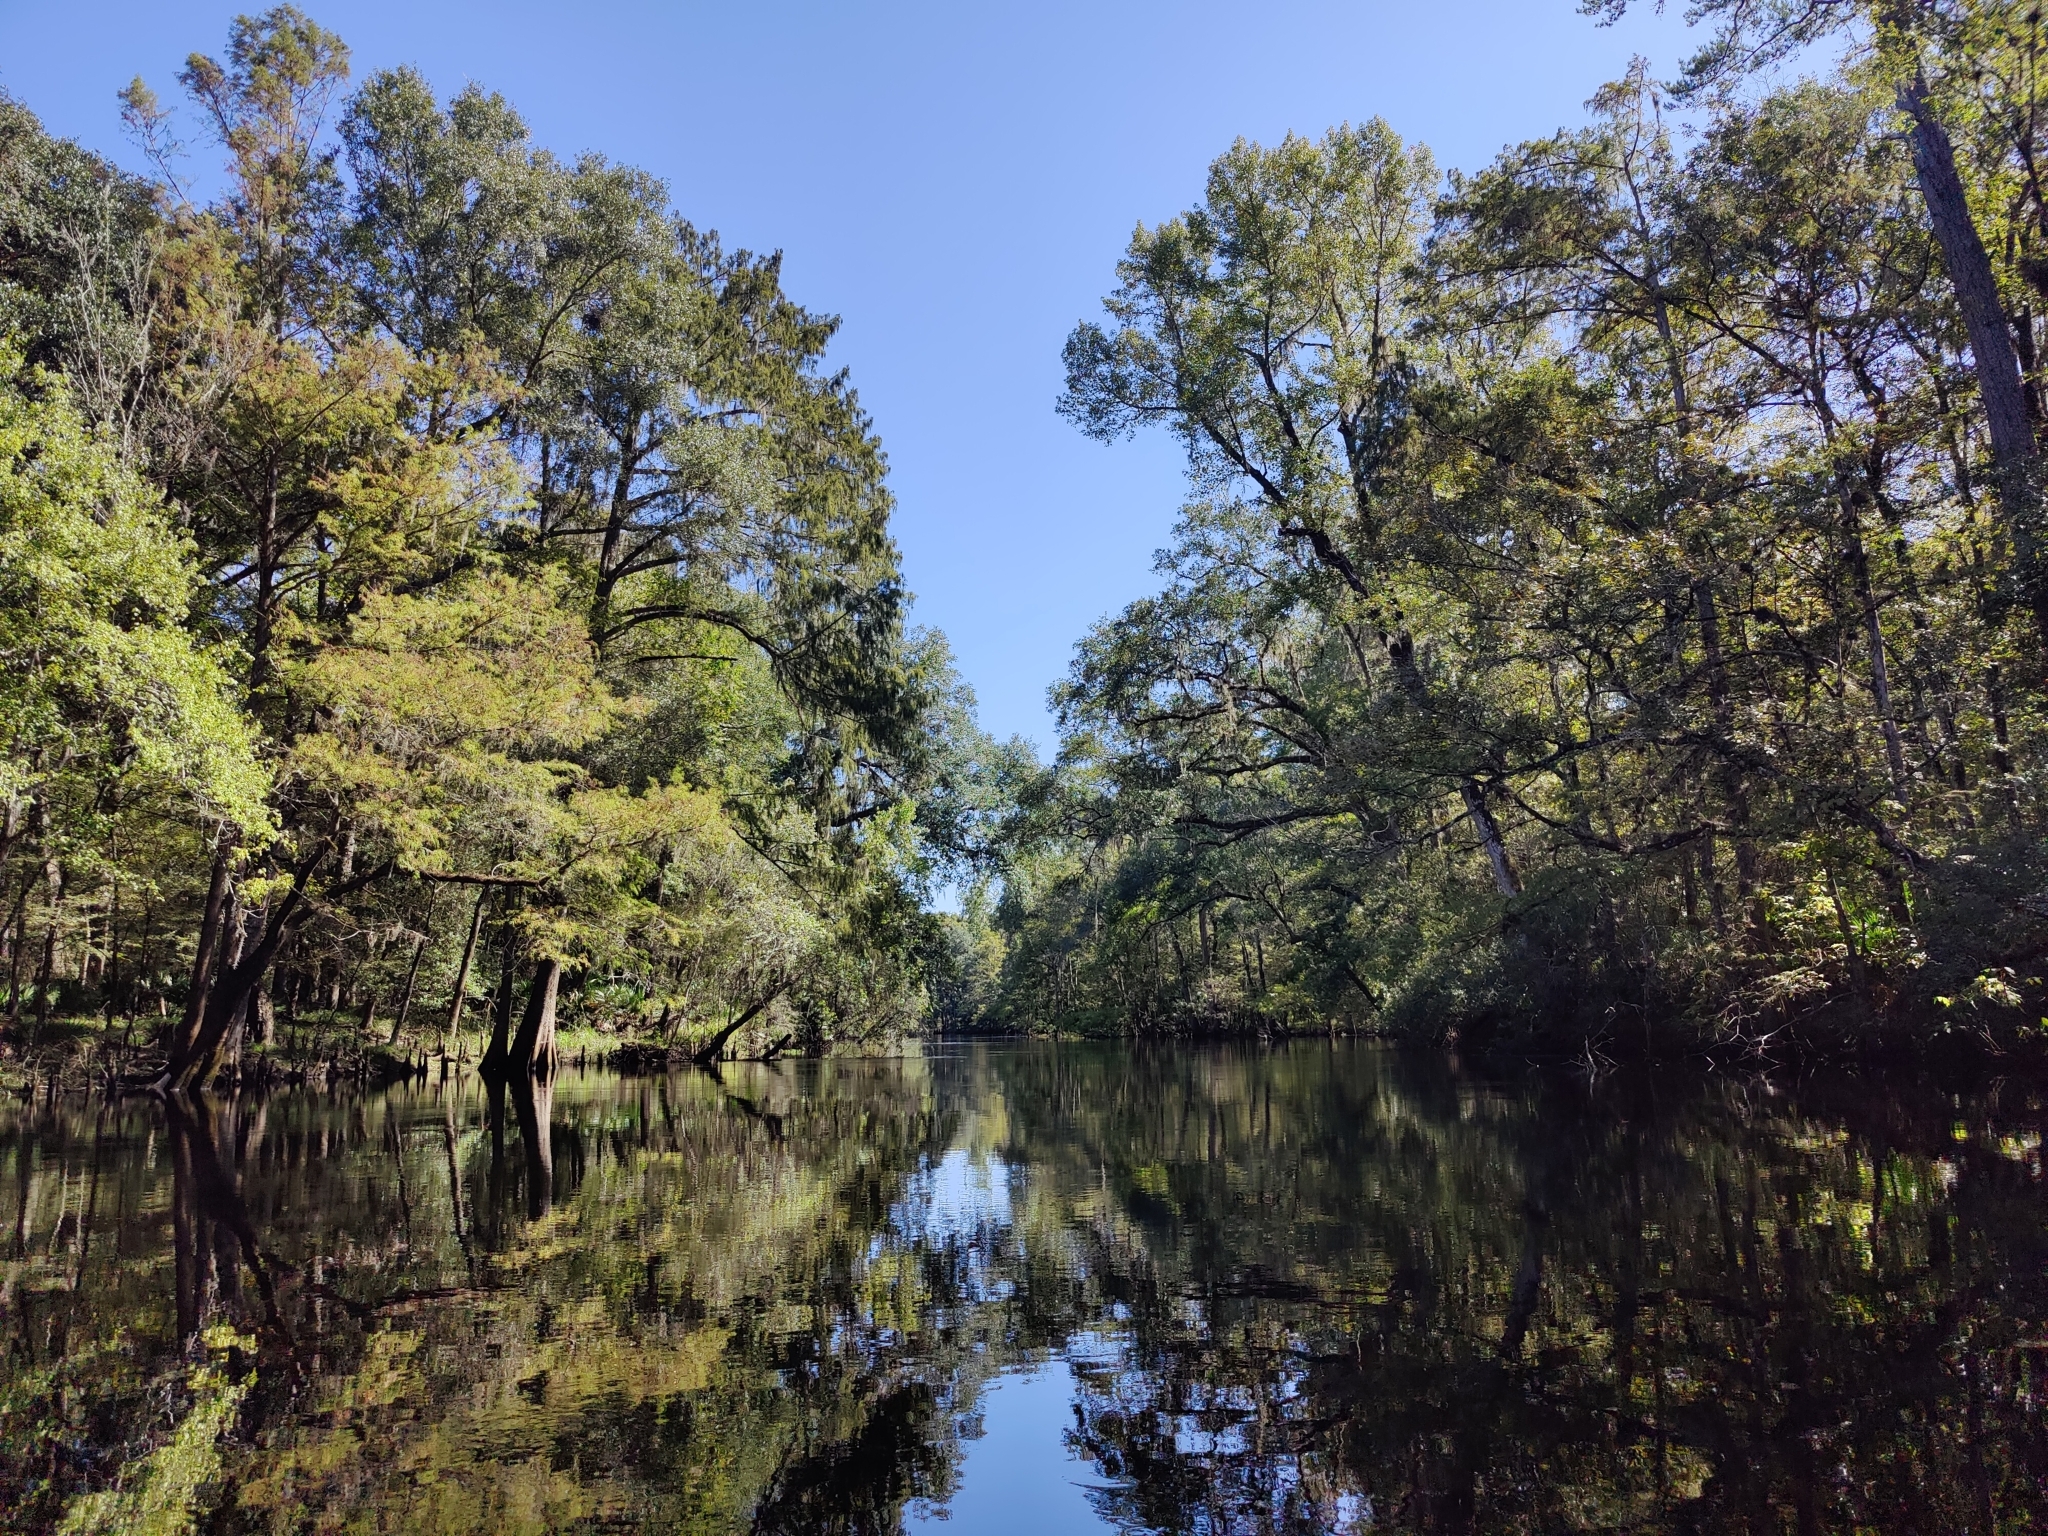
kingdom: Plantae
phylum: Tracheophyta
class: Magnoliopsida
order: Fagales
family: Juglandaceae
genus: Carya
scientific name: Carya aquatica
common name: Water hickory
